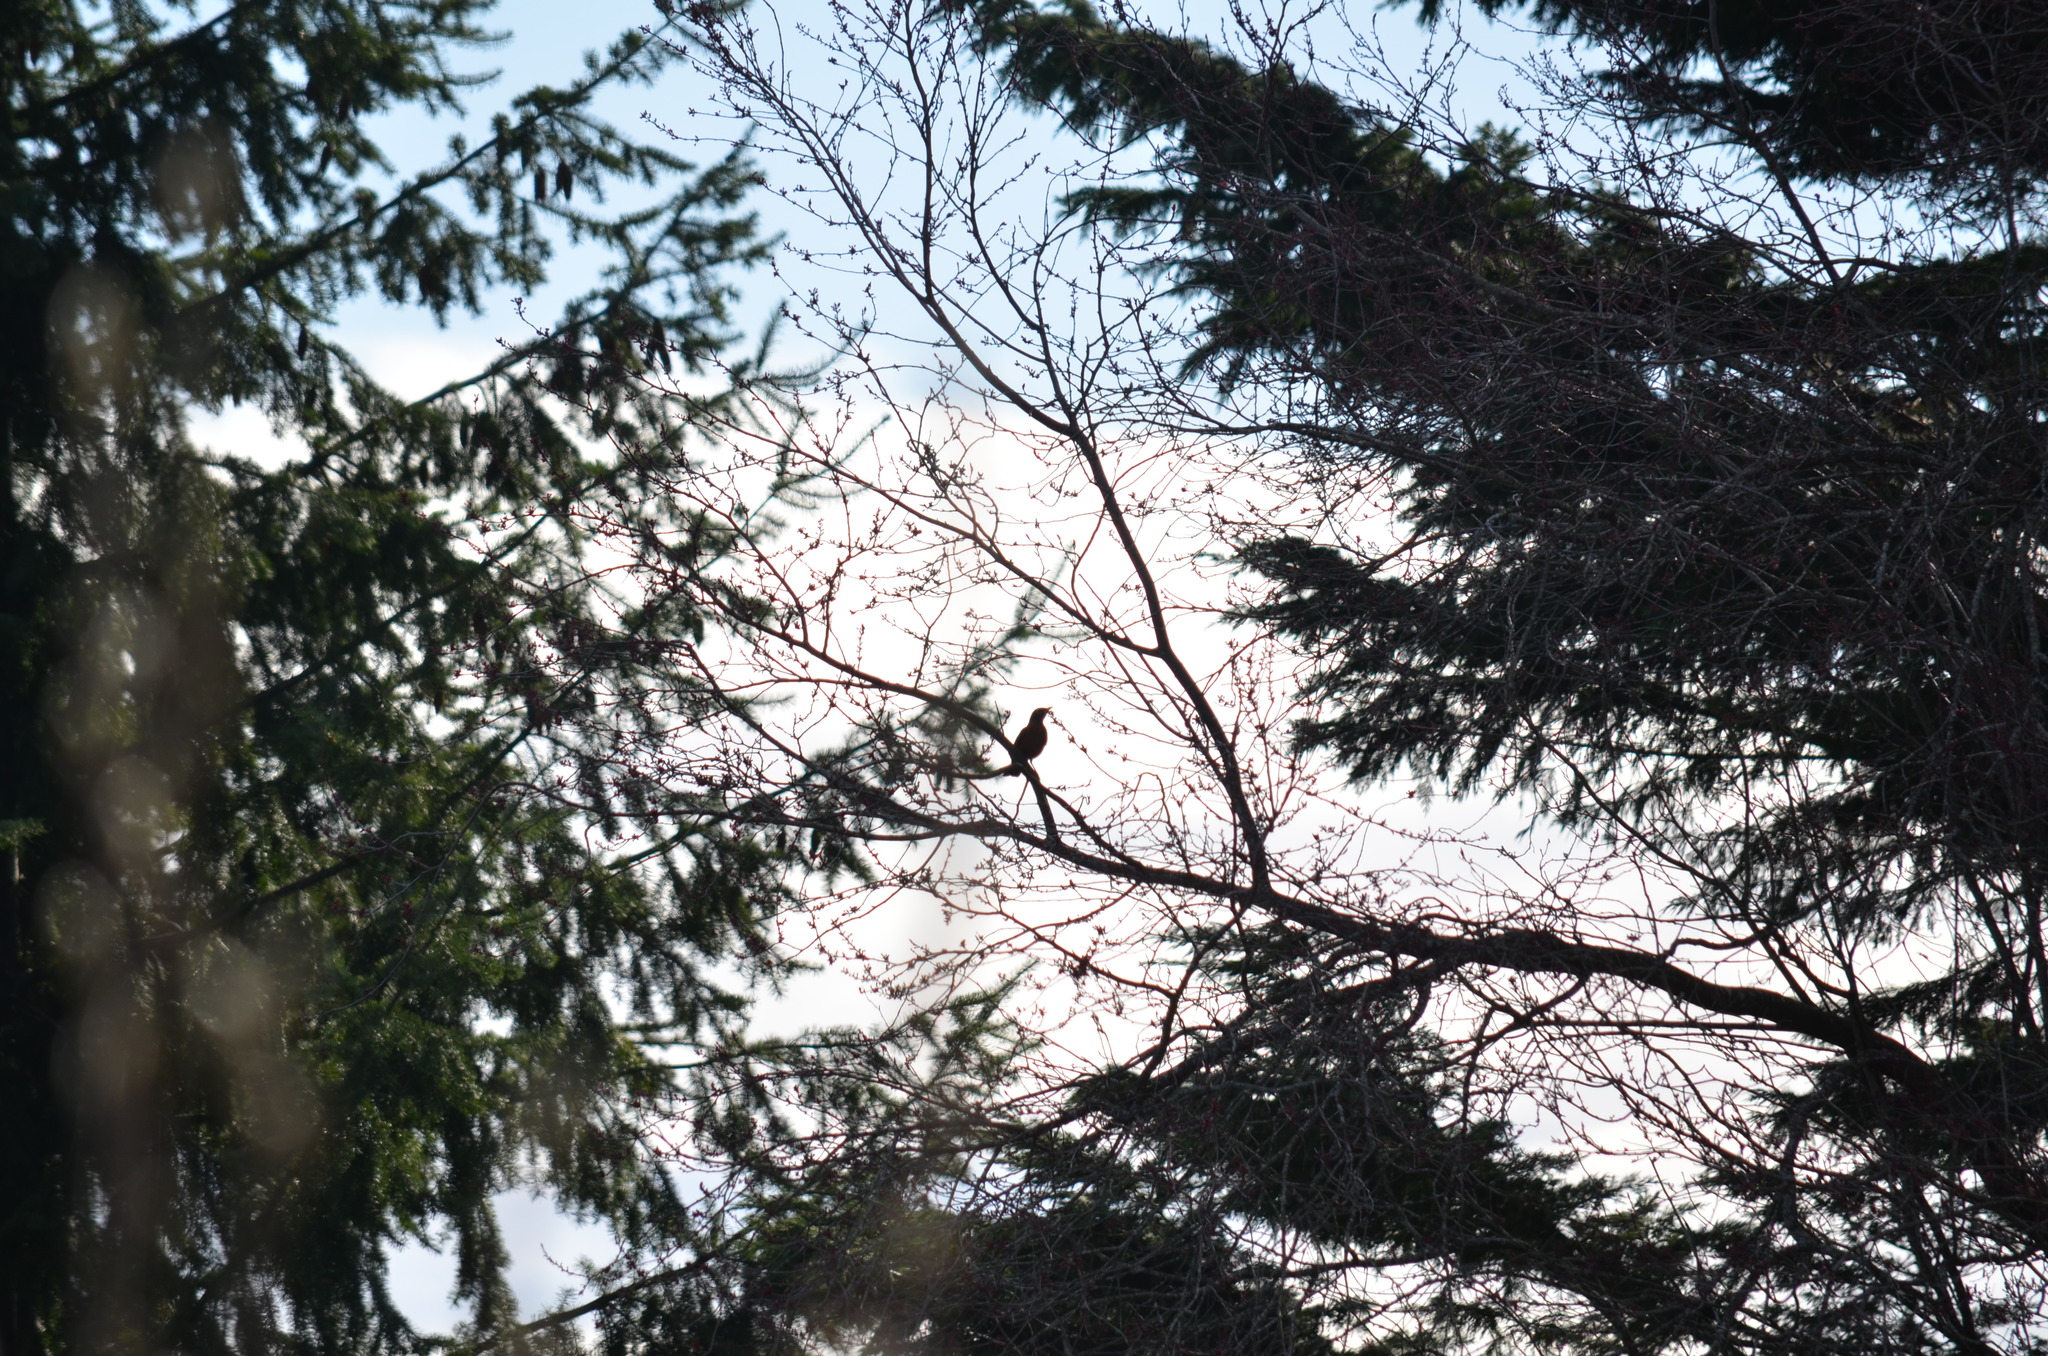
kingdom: Animalia
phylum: Chordata
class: Aves
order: Passeriformes
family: Turdidae
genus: Turdus
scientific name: Turdus migratorius
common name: American robin
